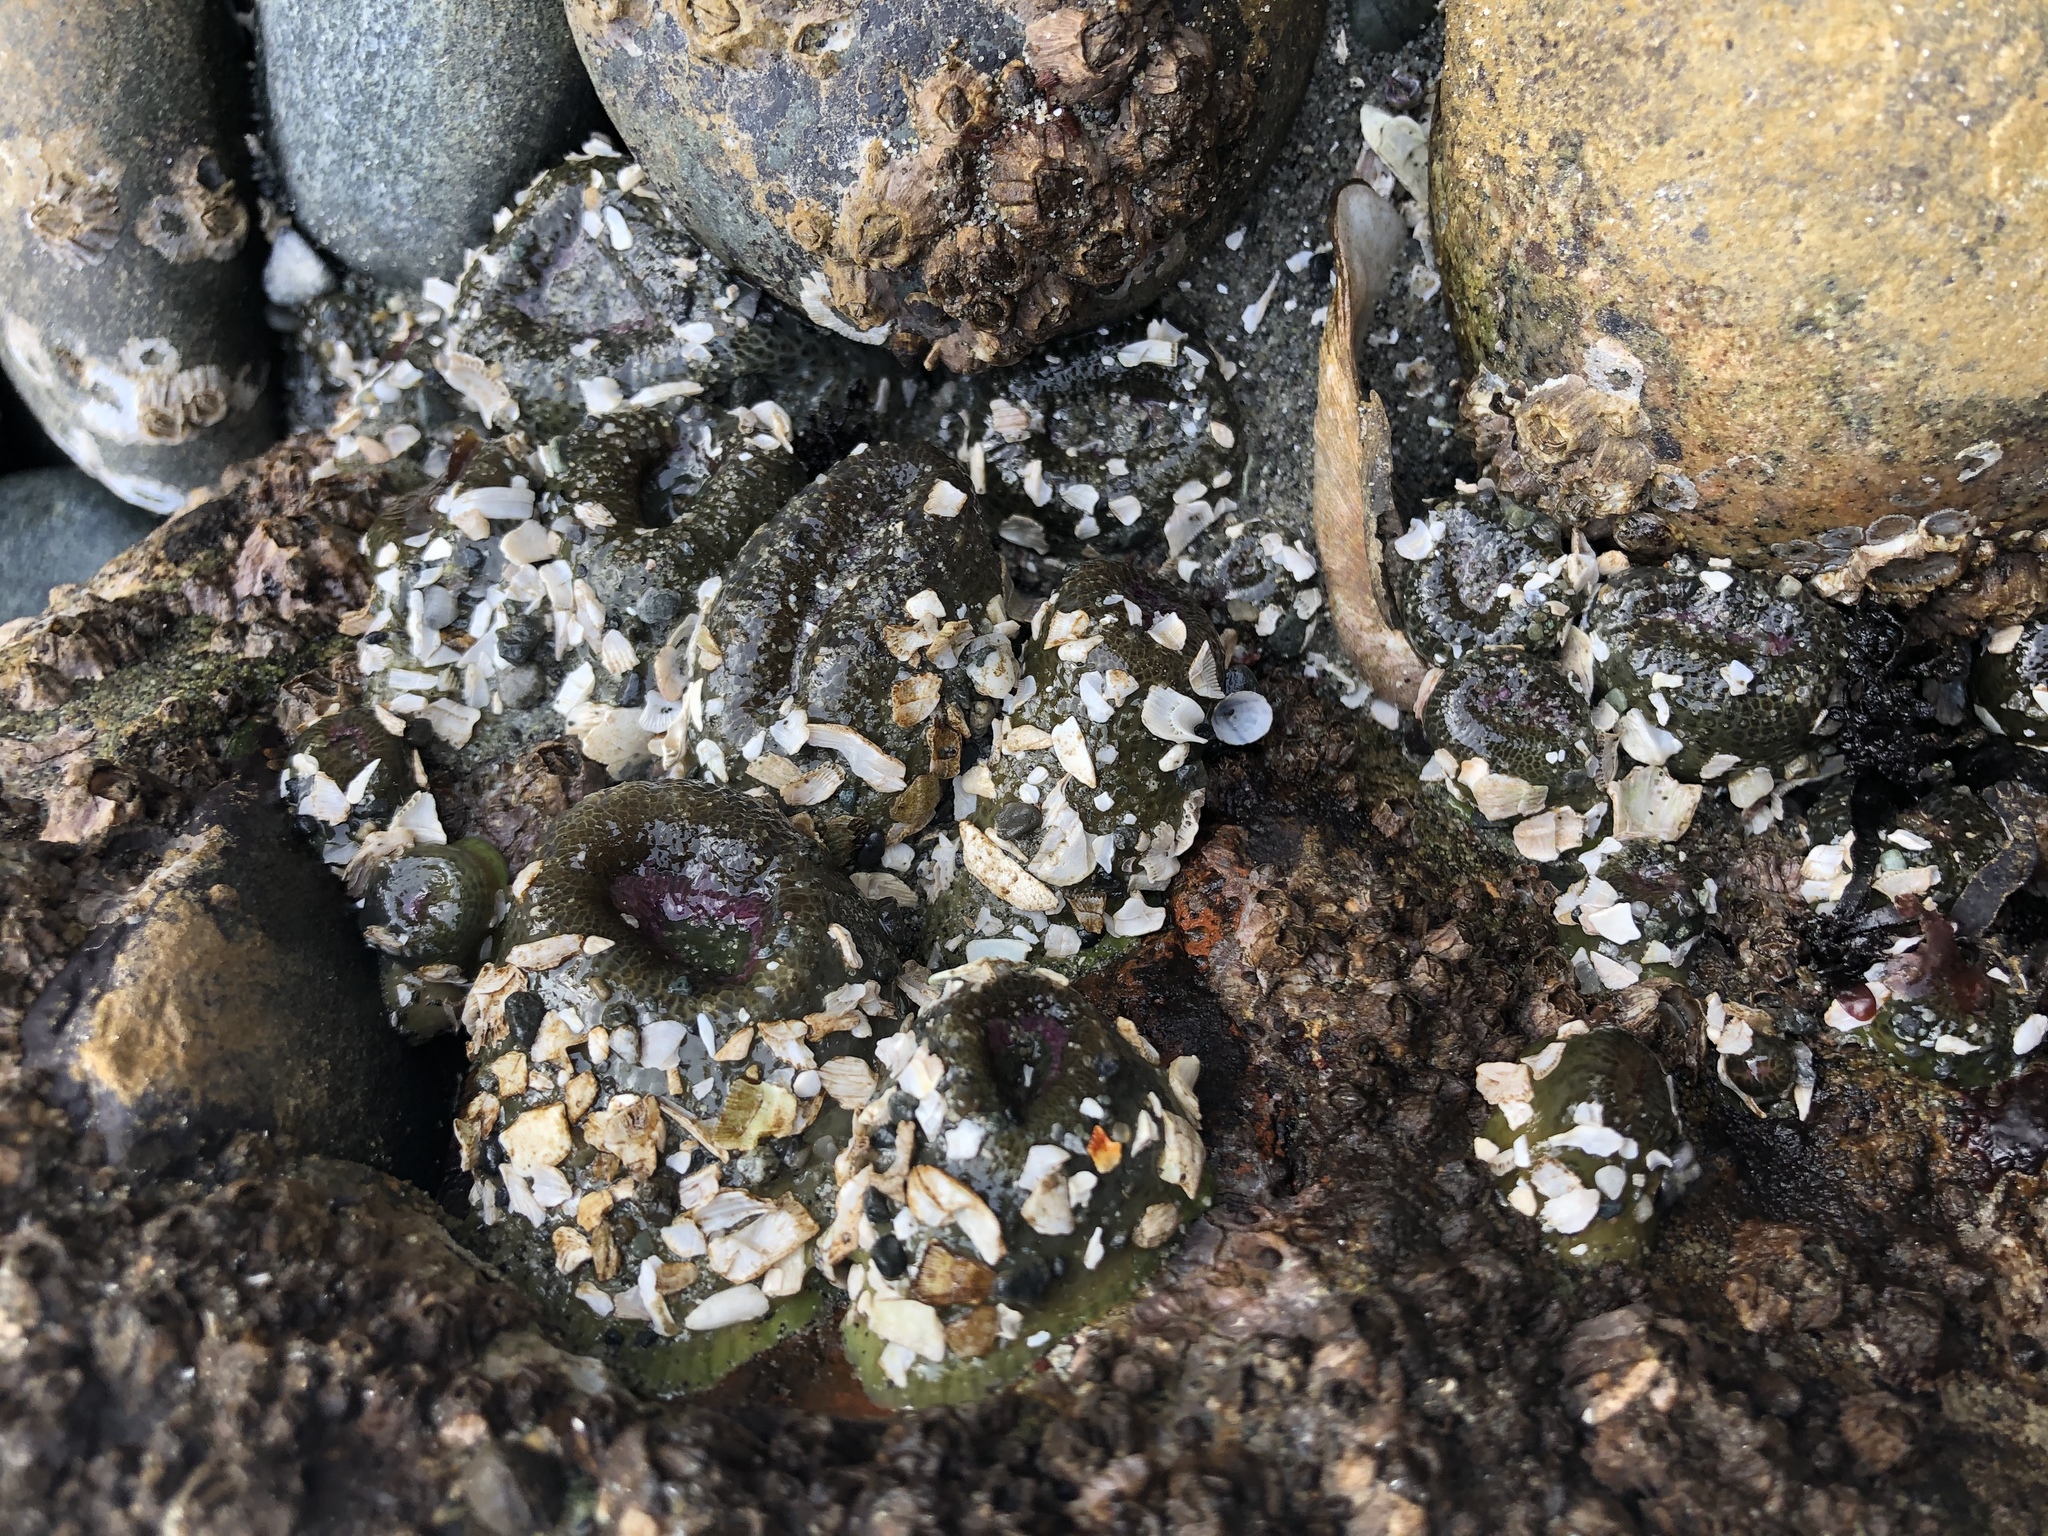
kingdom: Animalia
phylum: Cnidaria
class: Anthozoa
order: Actiniaria
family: Actiniidae
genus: Anthopleura
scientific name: Anthopleura elegantissima
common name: Clonal anemone
